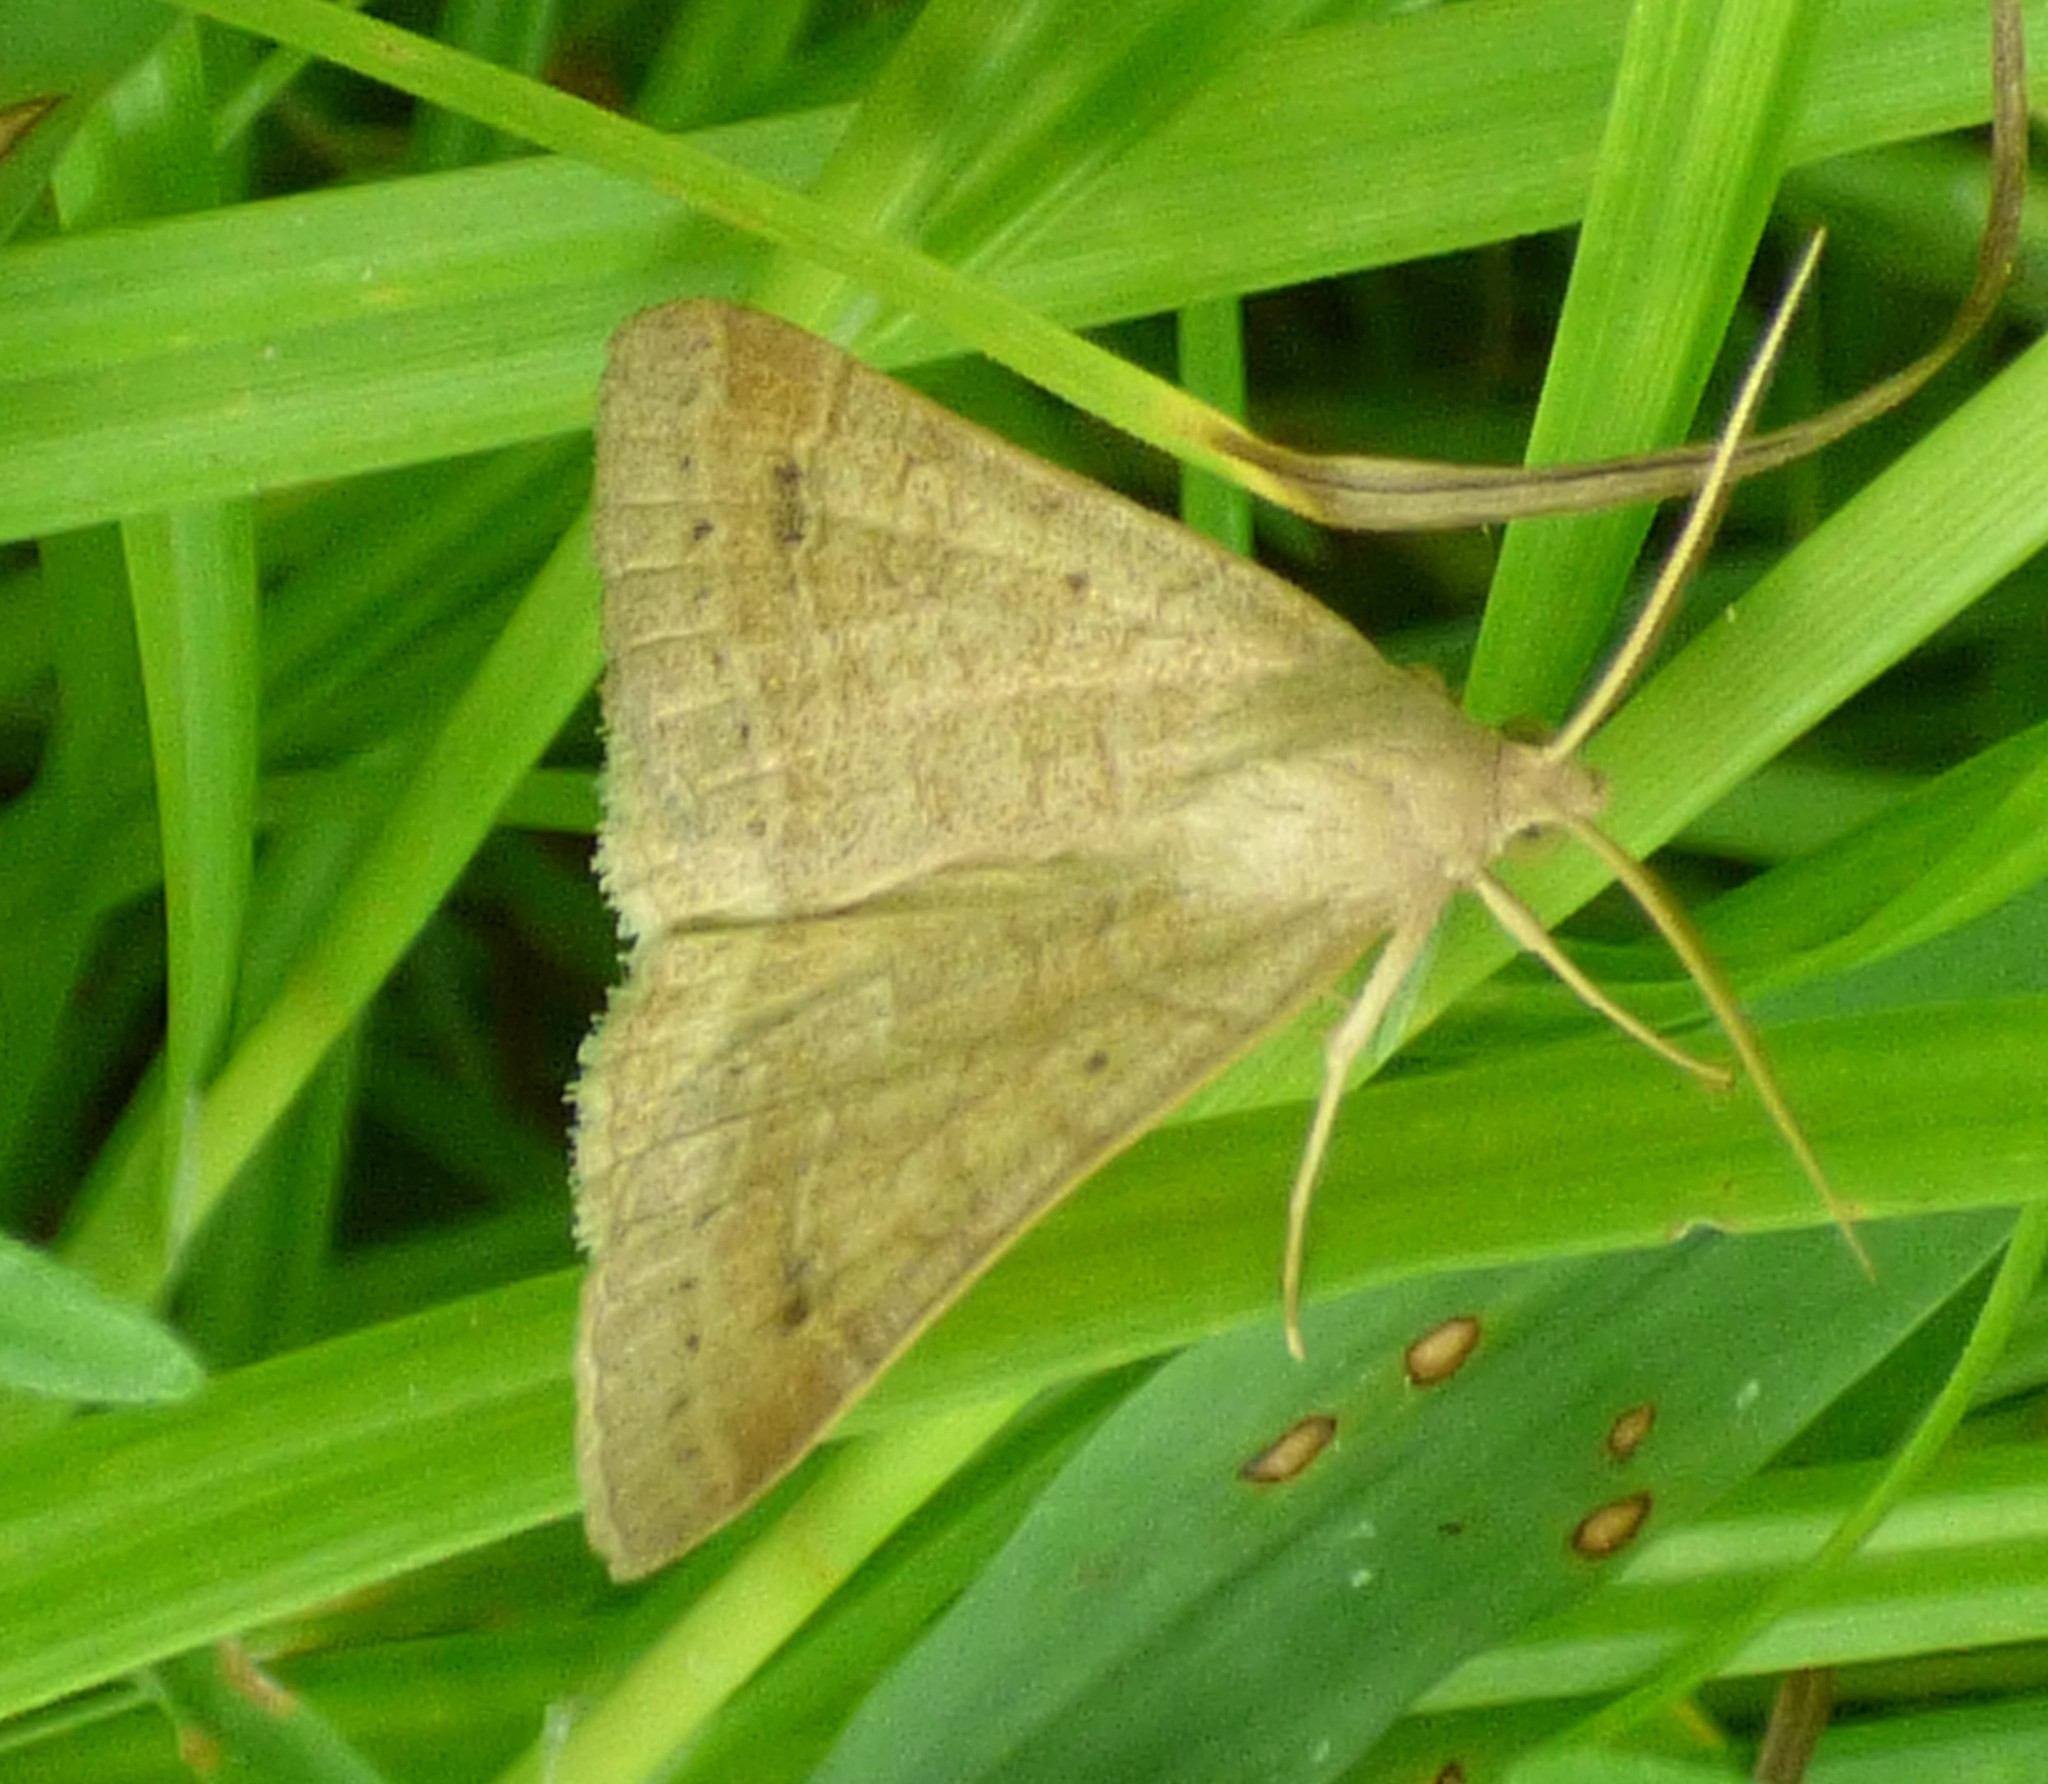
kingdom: Animalia
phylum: Arthropoda
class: Insecta
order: Lepidoptera
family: Erebidae
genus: Caenurgia
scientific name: Caenurgia chloropha
